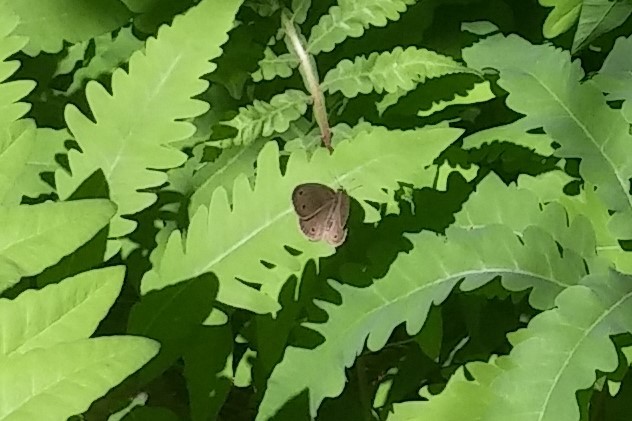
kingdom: Animalia
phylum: Arthropoda
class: Insecta
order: Lepidoptera
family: Nymphalidae
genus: Euptychia
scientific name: Euptychia cymela
